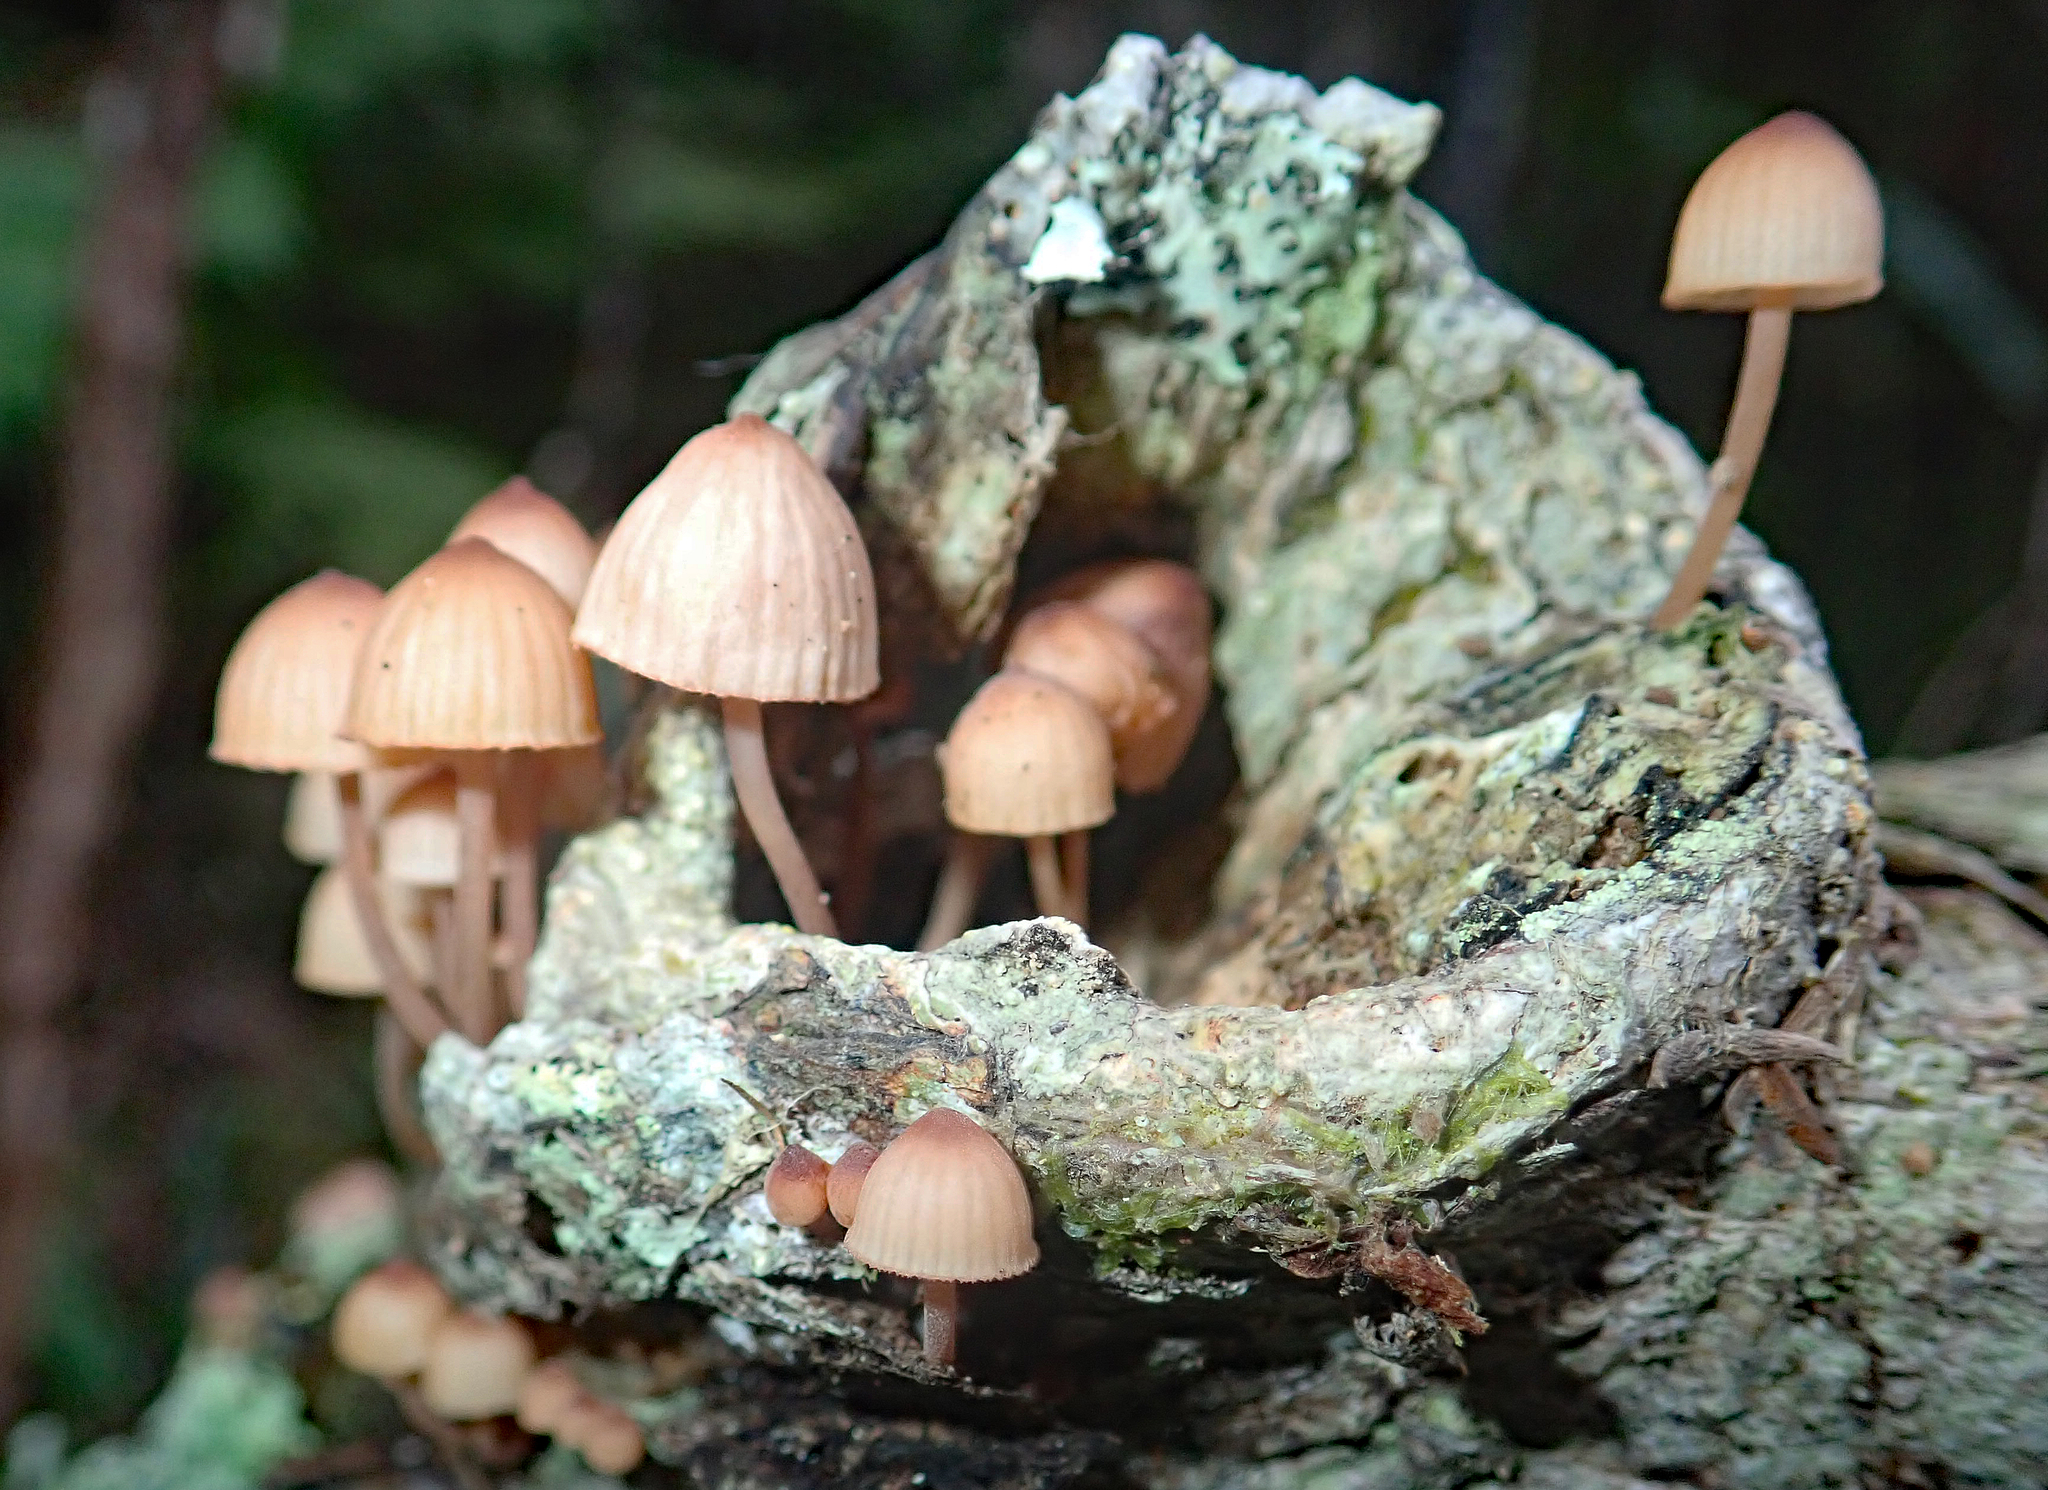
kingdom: Fungi
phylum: Basidiomycota
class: Agaricomycetes
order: Agaricales
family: Mycenaceae
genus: Mycena
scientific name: Mycena parsonsii
